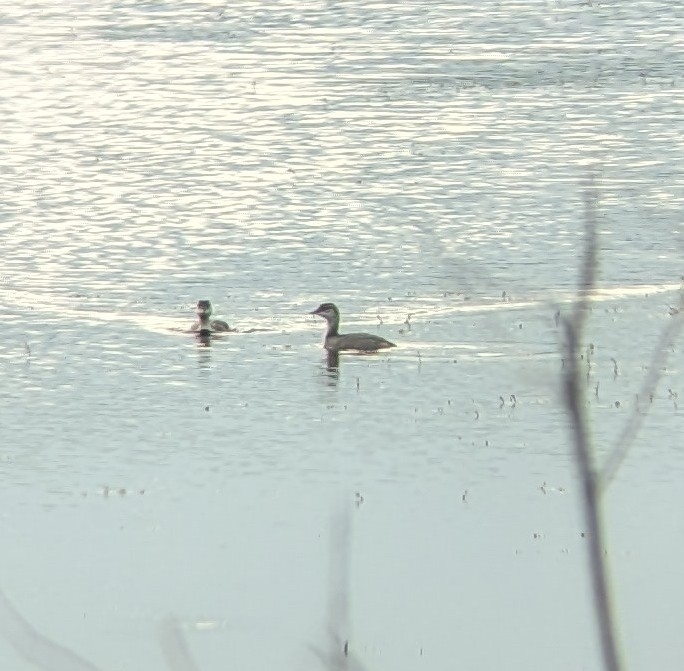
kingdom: Animalia
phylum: Chordata
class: Aves
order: Podicipediformes
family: Podicipedidae
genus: Podiceps
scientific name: Podiceps nigricollis
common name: Black-necked grebe
